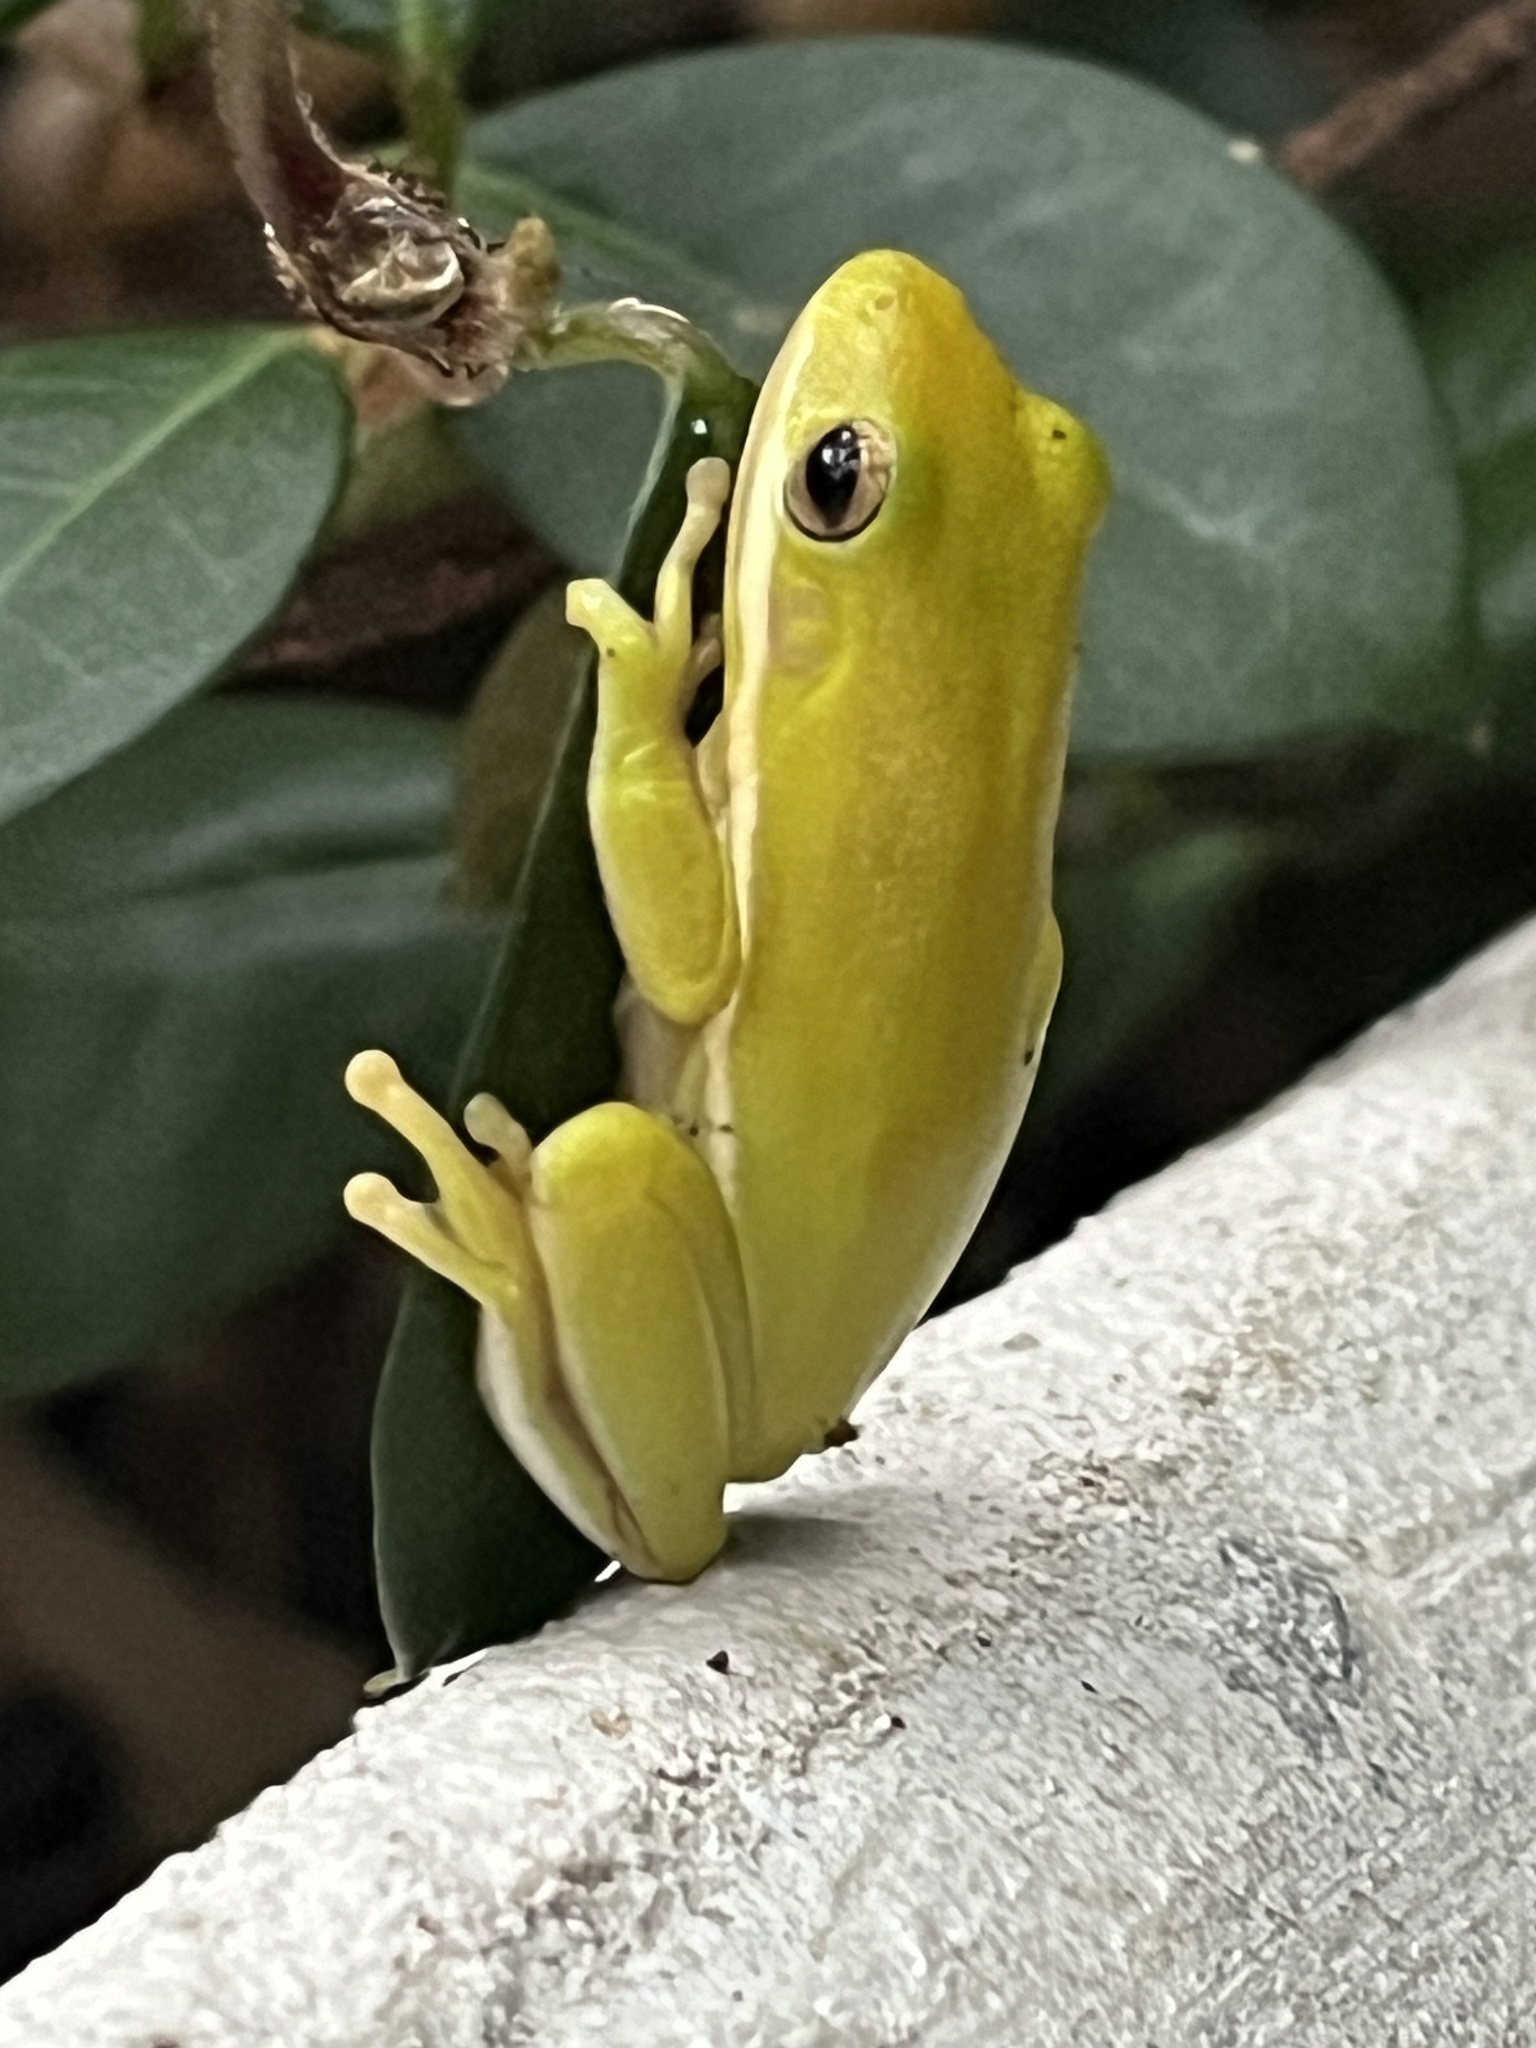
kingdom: Animalia
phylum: Chordata
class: Amphibia
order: Anura
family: Hylidae
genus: Dryophytes
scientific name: Dryophytes cinereus
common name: Green treefrog
